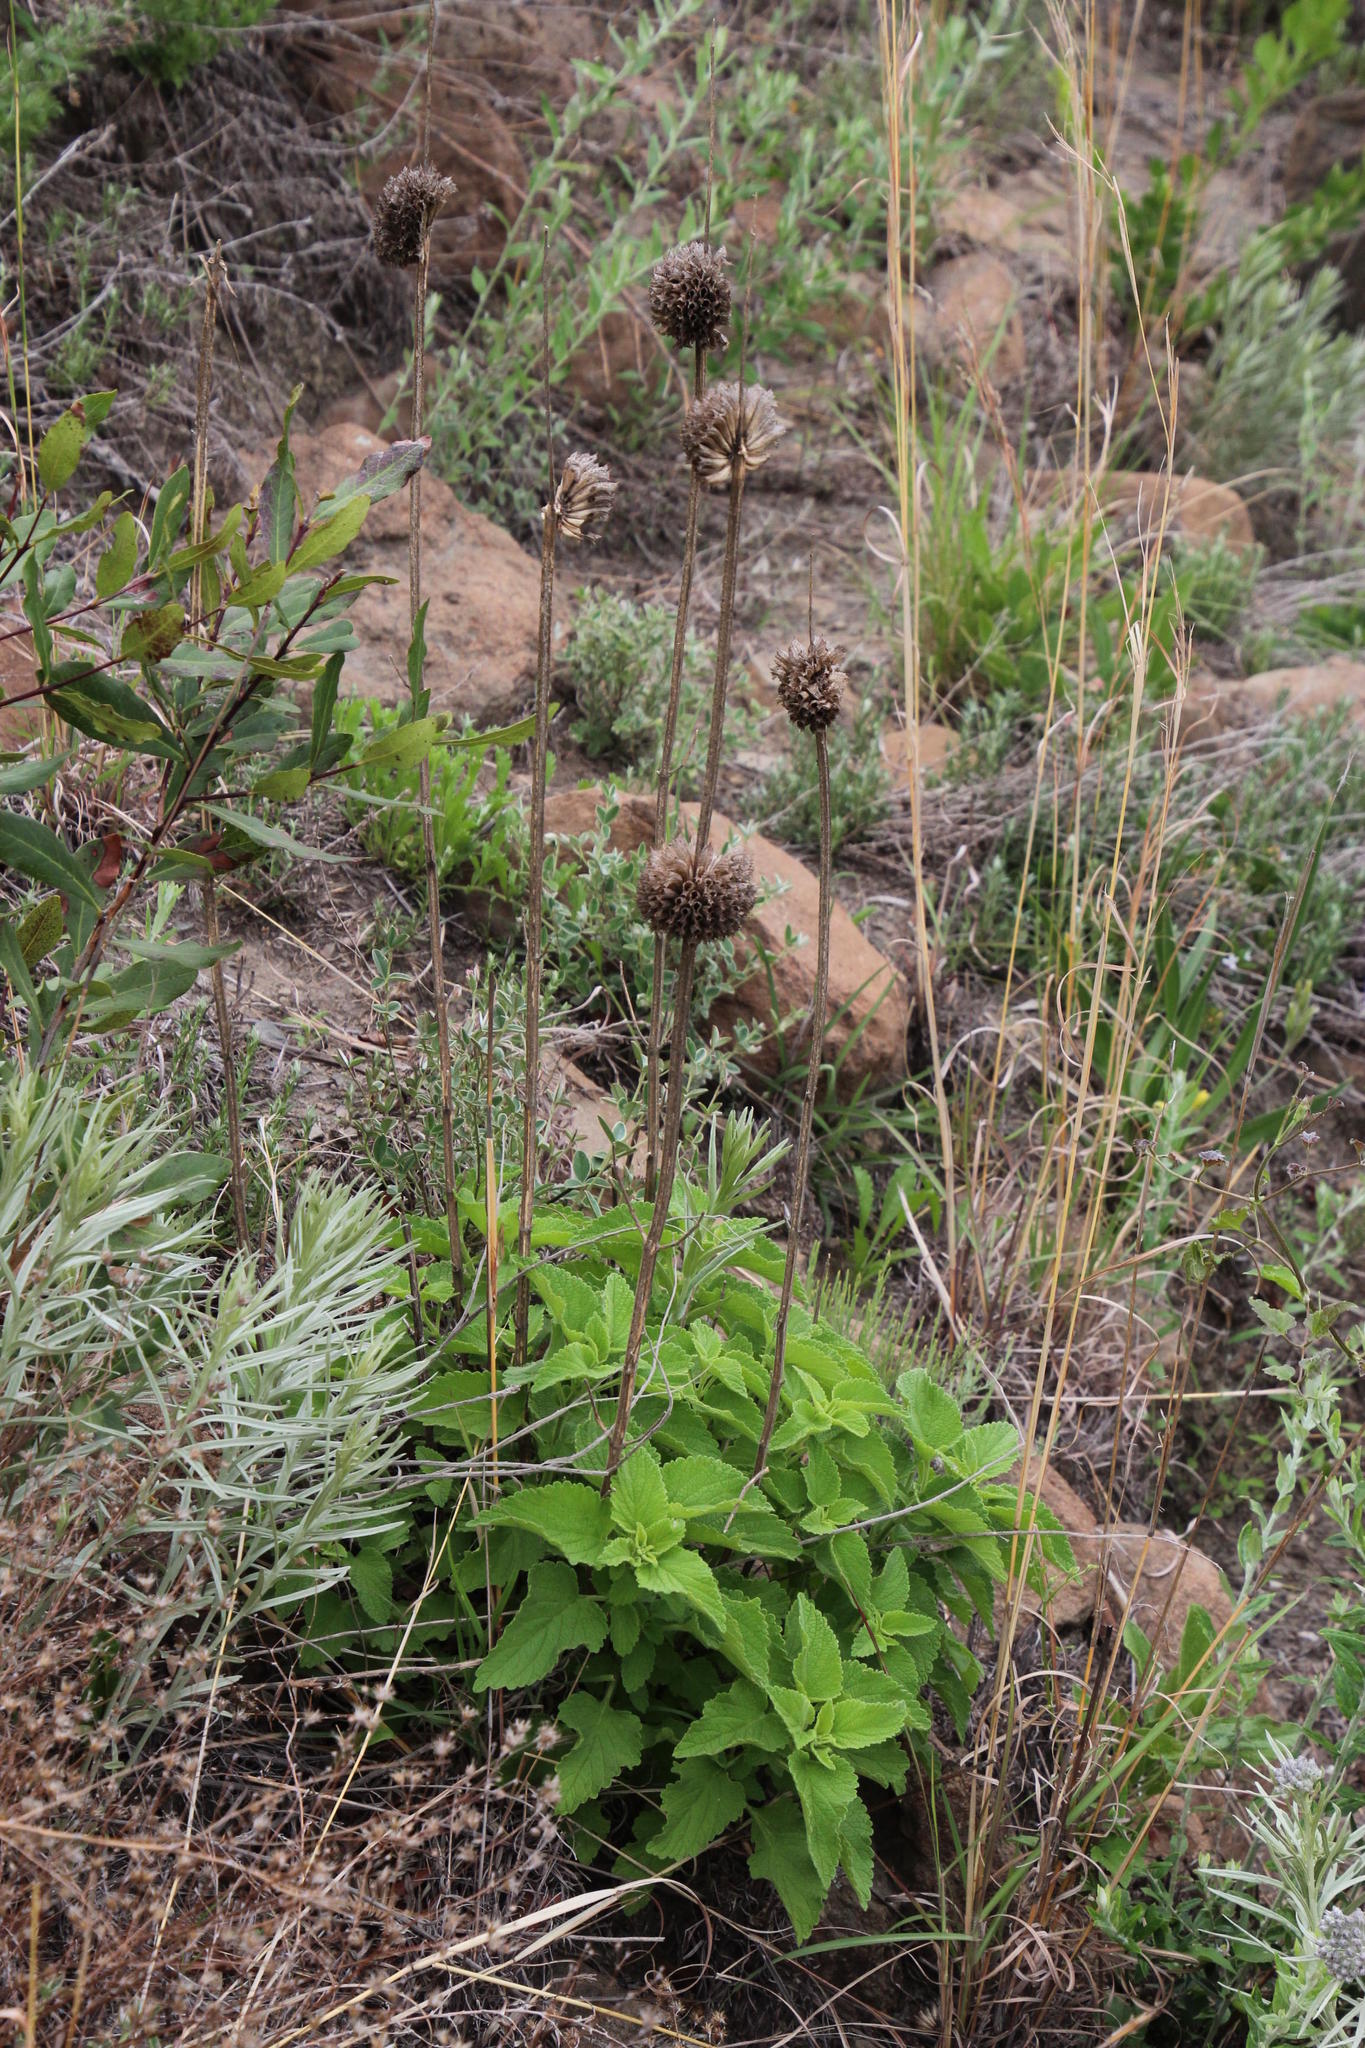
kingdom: Plantae
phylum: Tracheophyta
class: Magnoliopsida
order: Lamiales
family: Lamiaceae
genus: Leonotis
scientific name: Leonotis ocymifolia
